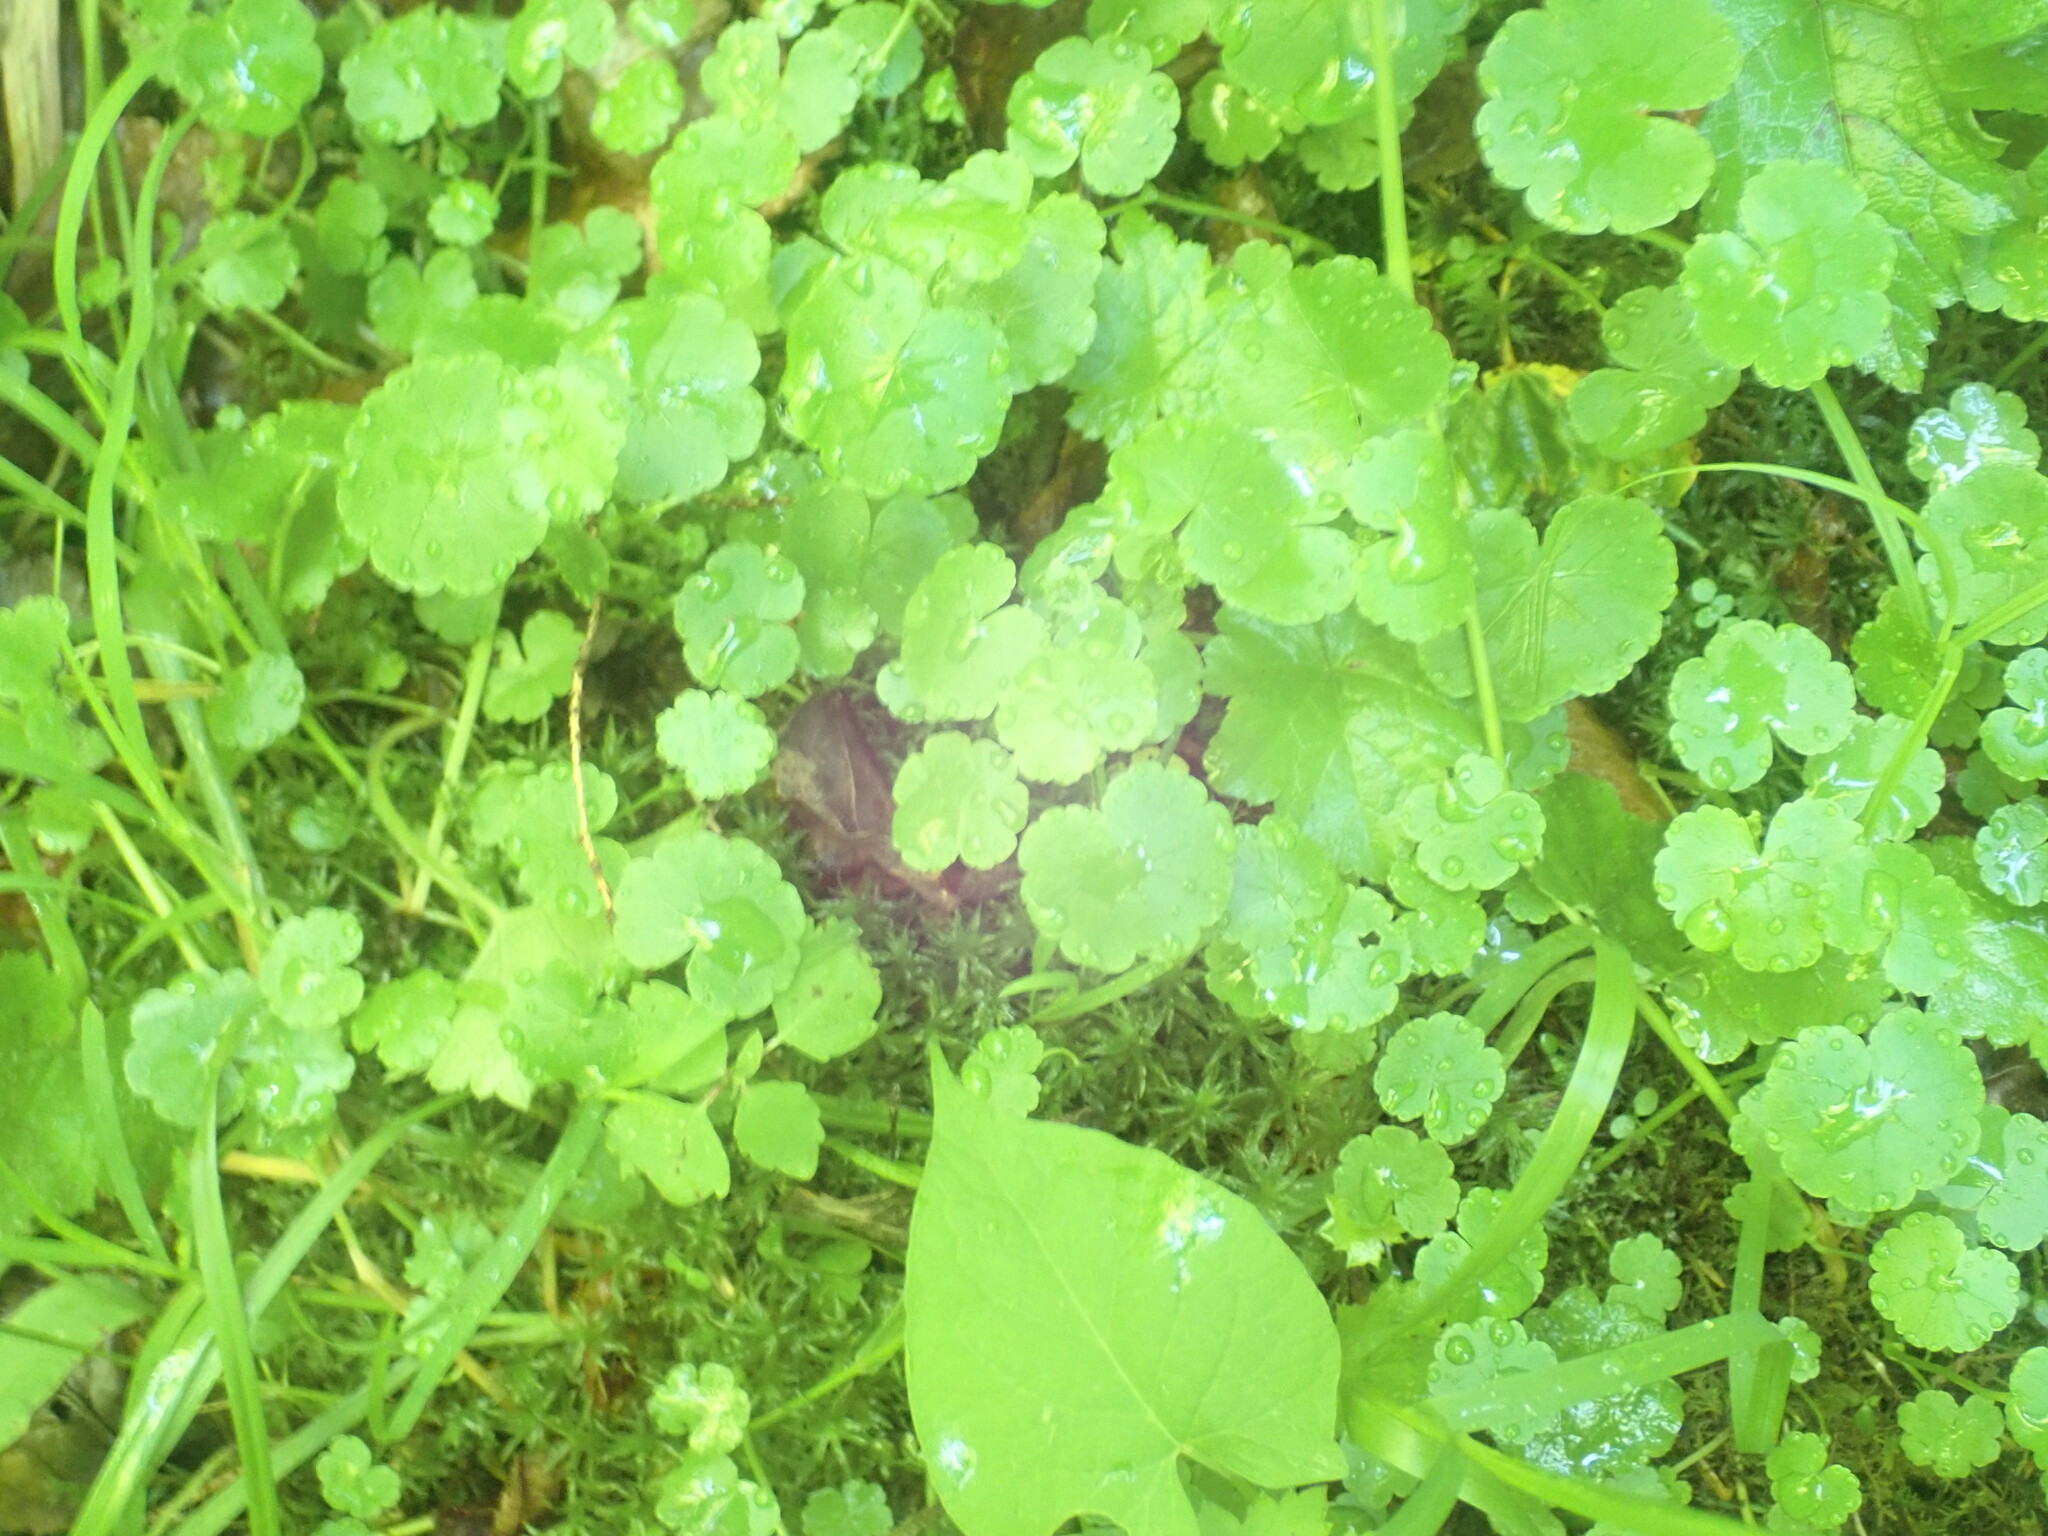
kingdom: Plantae
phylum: Tracheophyta
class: Magnoliopsida
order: Apiales
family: Araliaceae
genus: Hydrocotyle
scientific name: Hydrocotyle americana
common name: American water-pennywort
